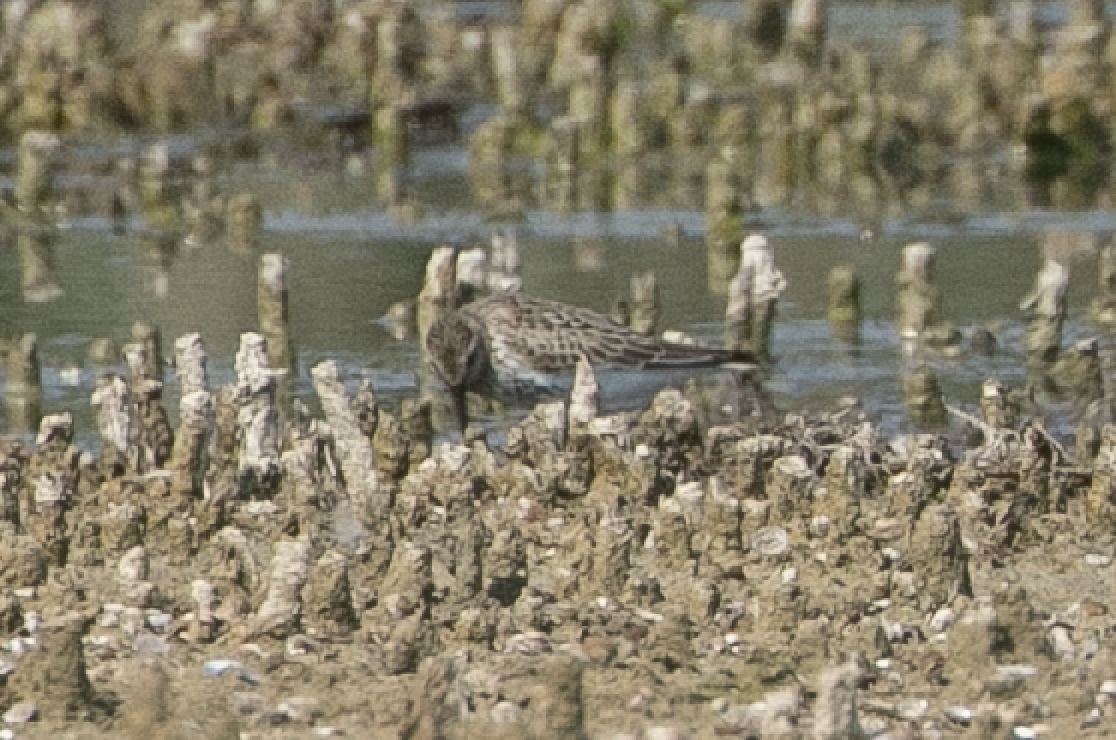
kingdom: Animalia
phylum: Chordata
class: Aves
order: Charadriiformes
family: Scolopacidae
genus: Calidris
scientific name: Calidris alpina
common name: Dunlin
